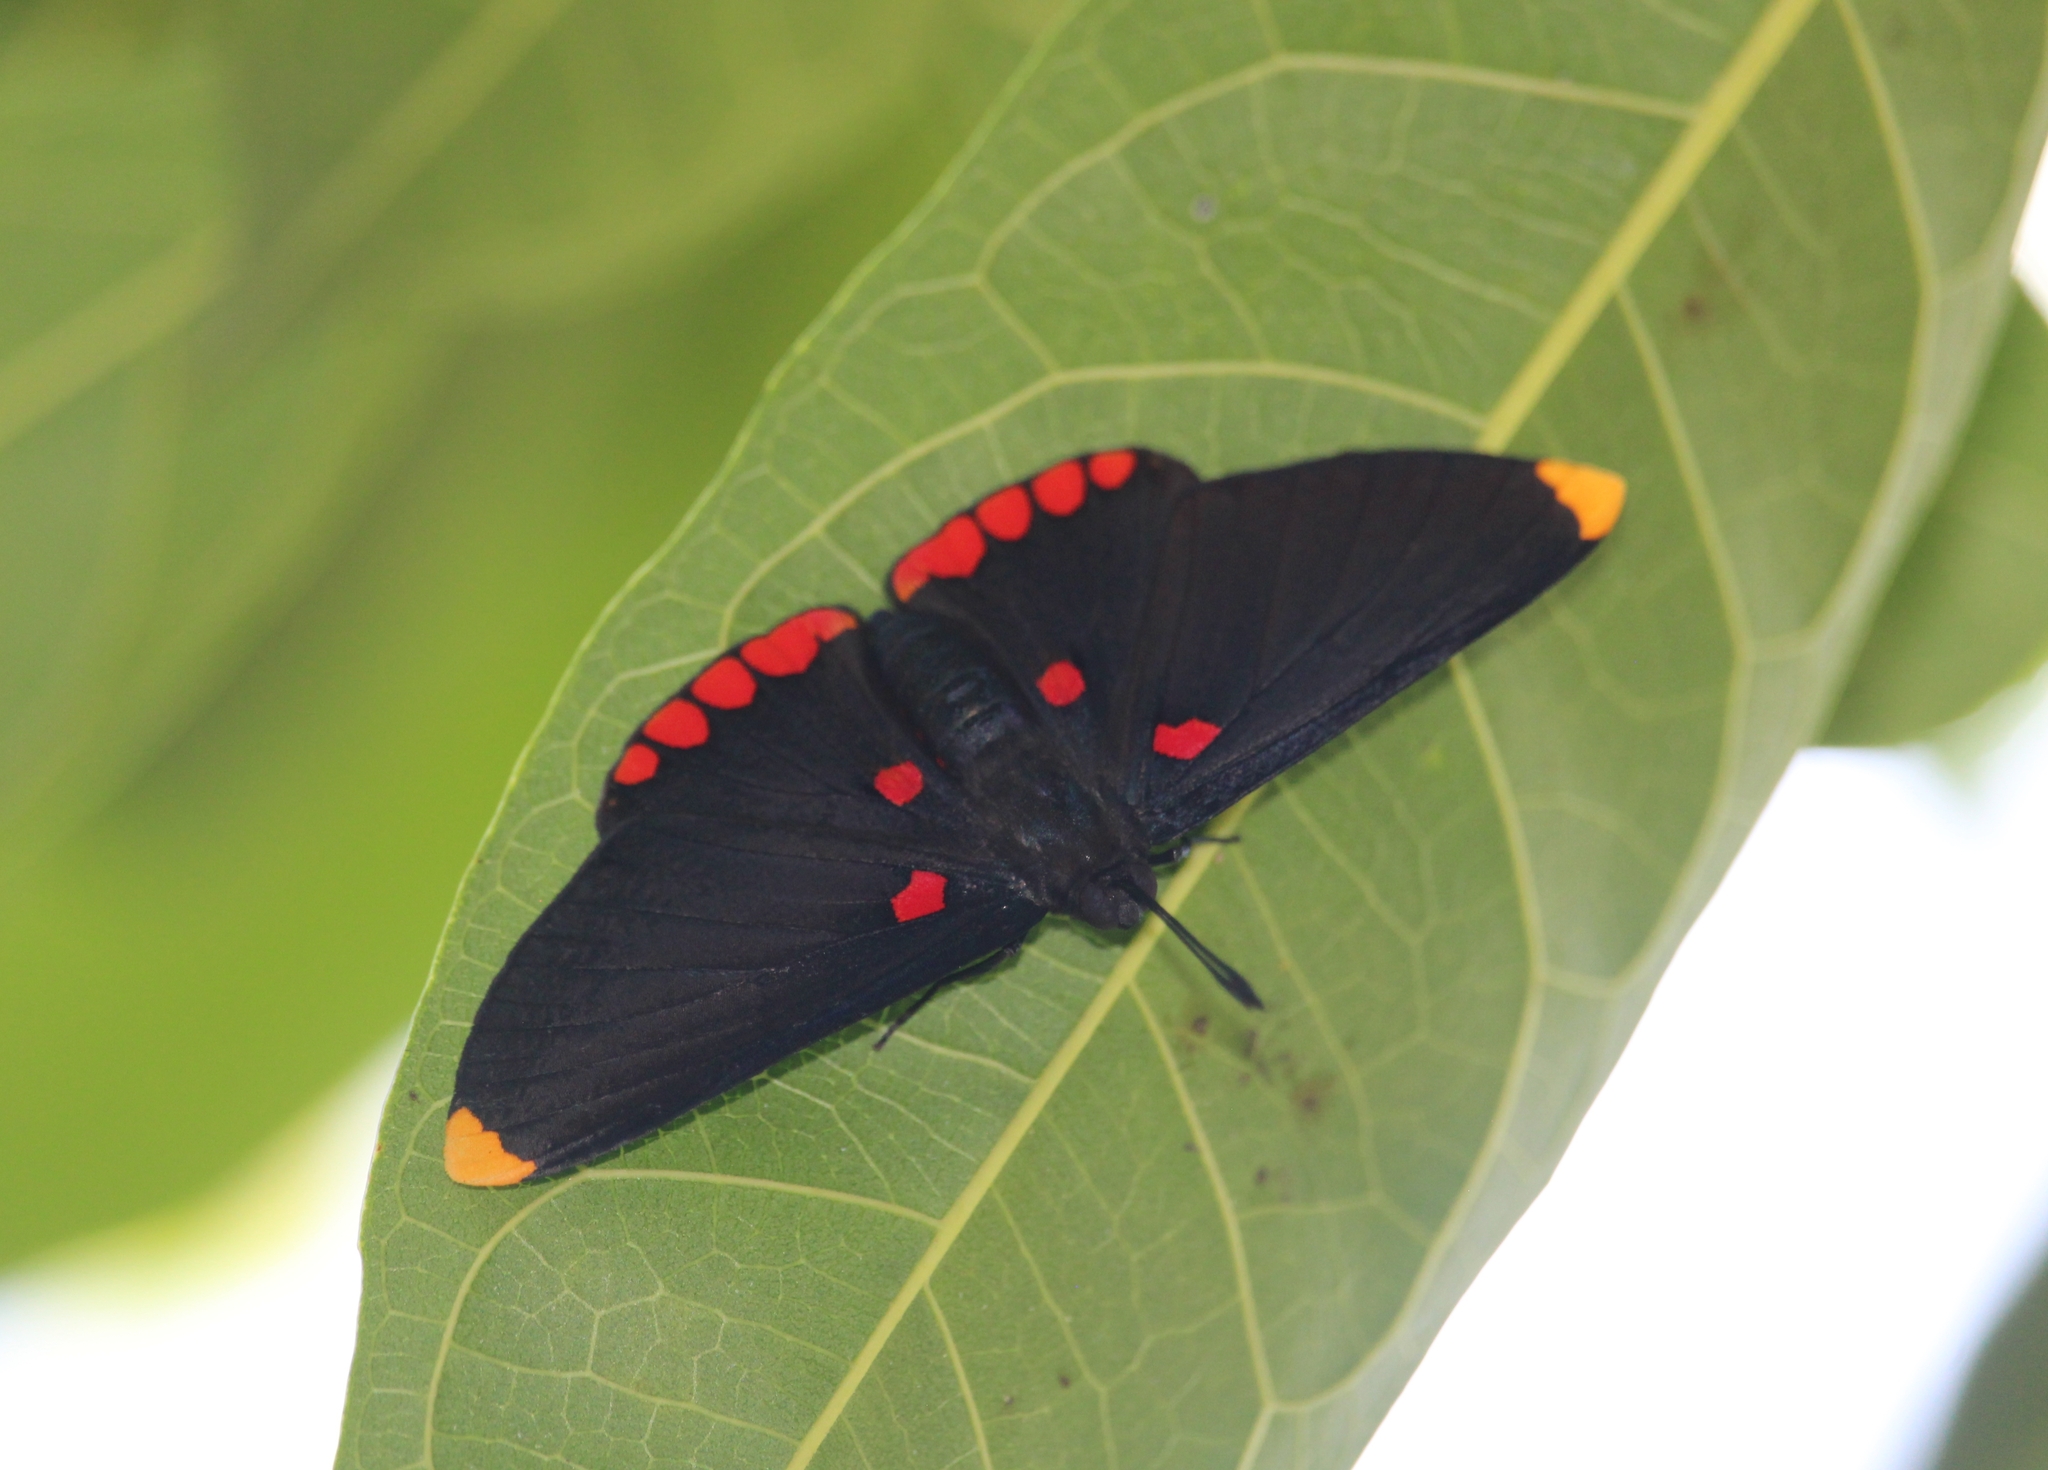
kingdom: Animalia
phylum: Arthropoda
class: Insecta
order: Lepidoptera
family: Lycaenidae
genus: Melanis
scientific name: Melanis pixe
